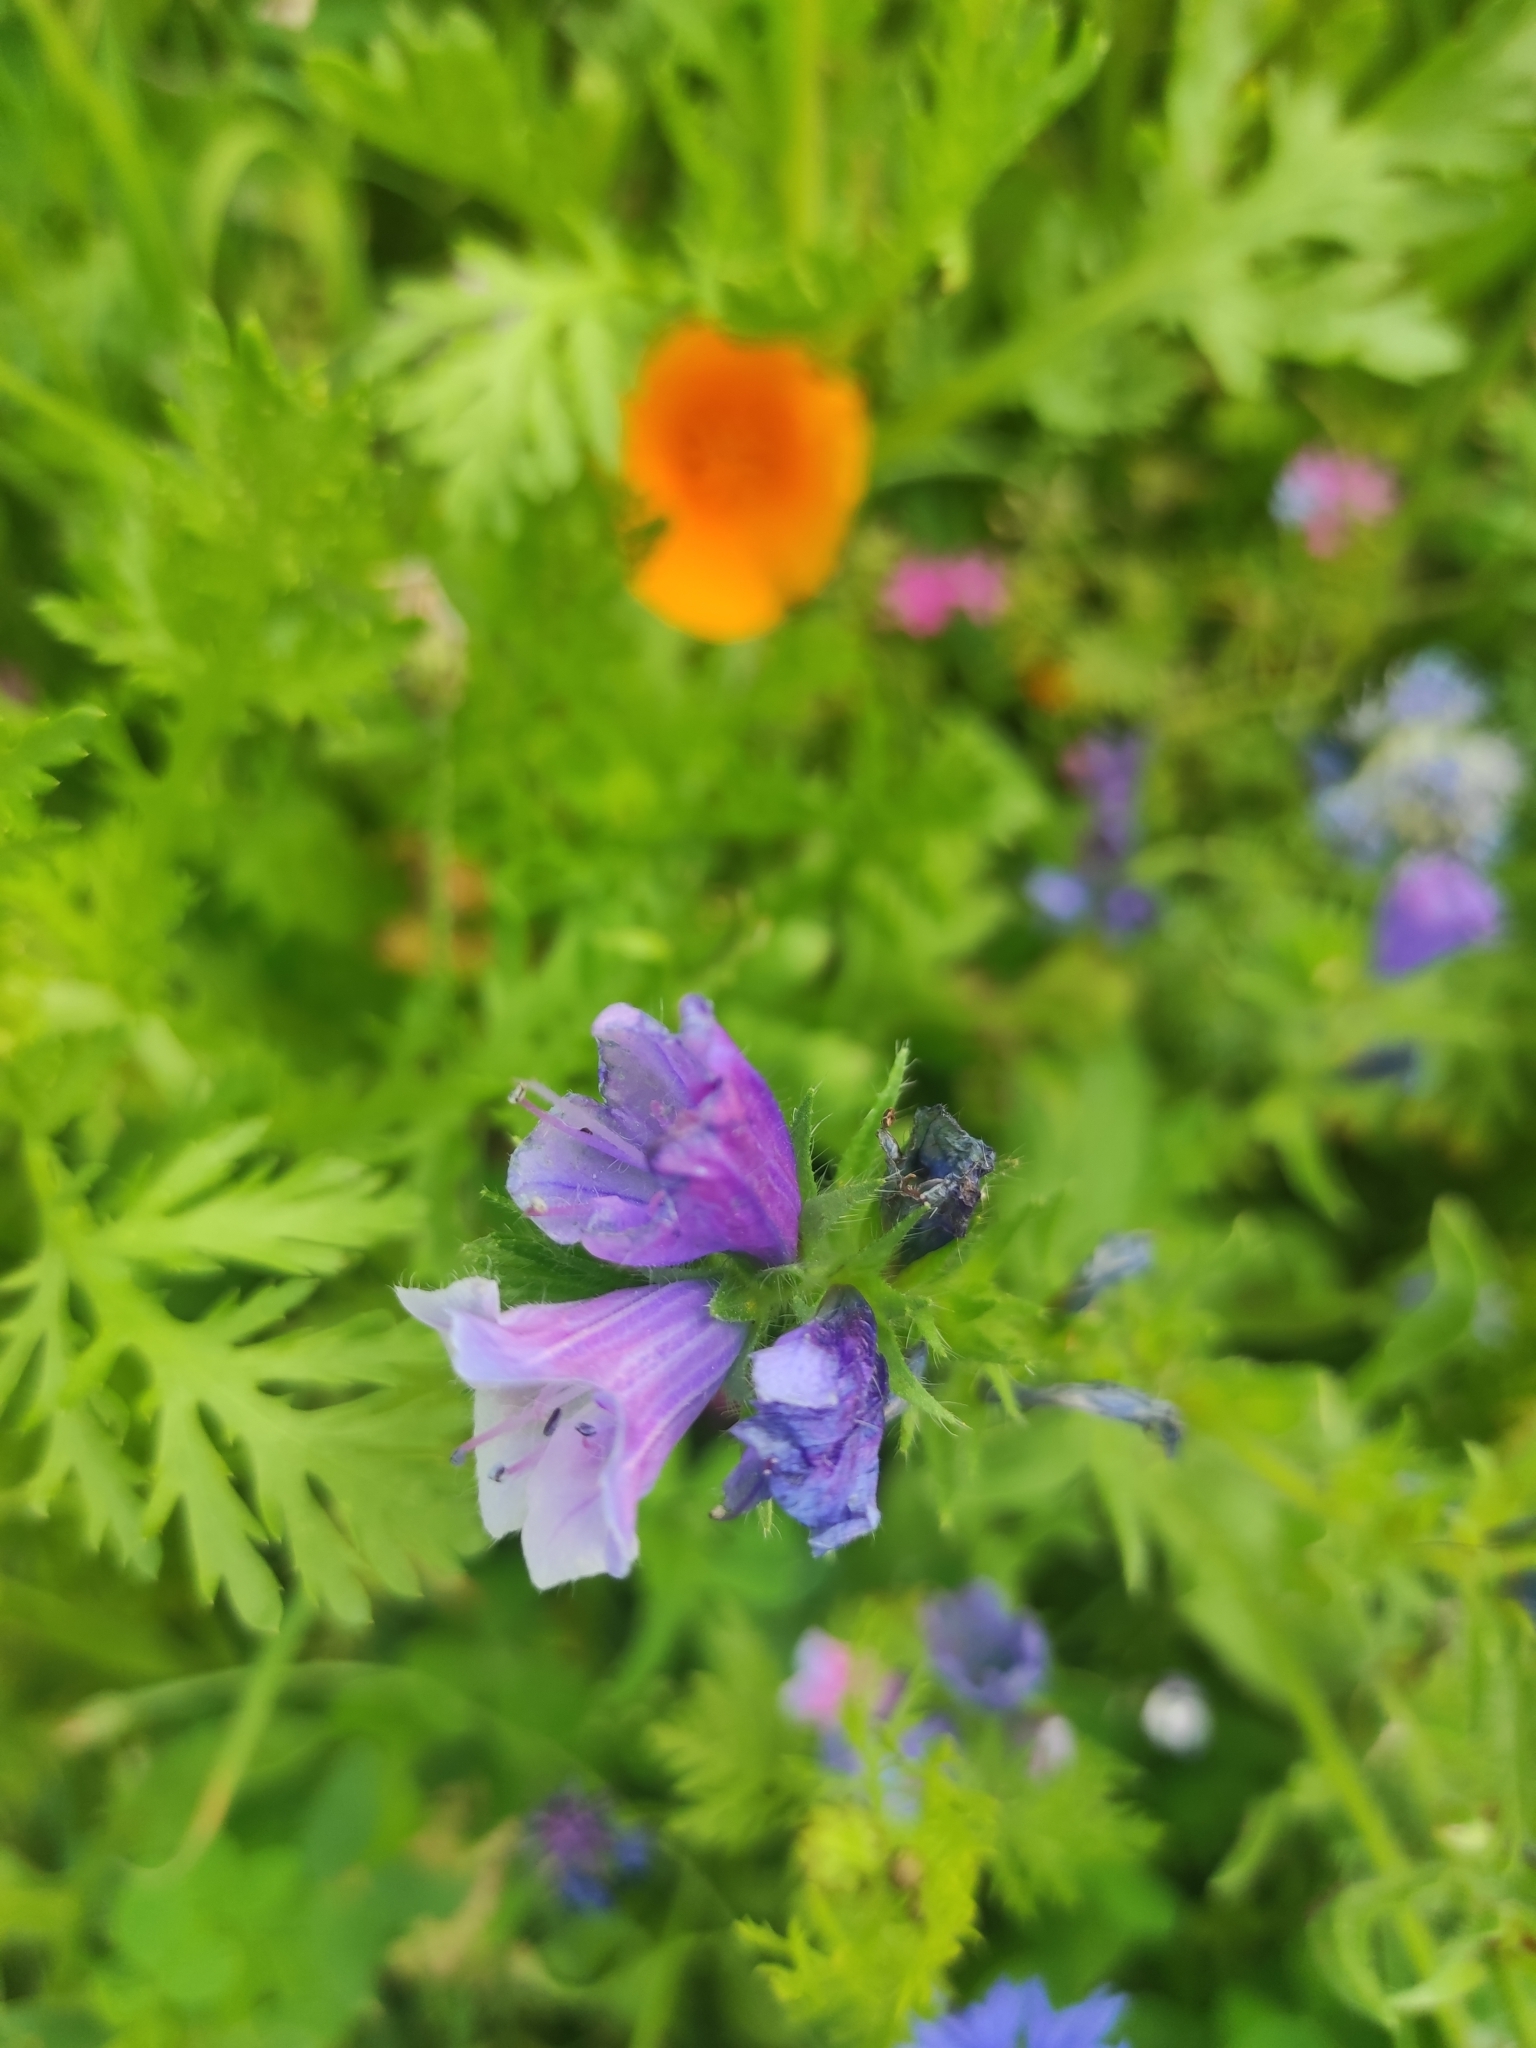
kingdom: Plantae
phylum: Tracheophyta
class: Magnoliopsida
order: Boraginales
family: Boraginaceae
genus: Echium
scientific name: Echium plantagineum
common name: Purple viper's-bugloss
